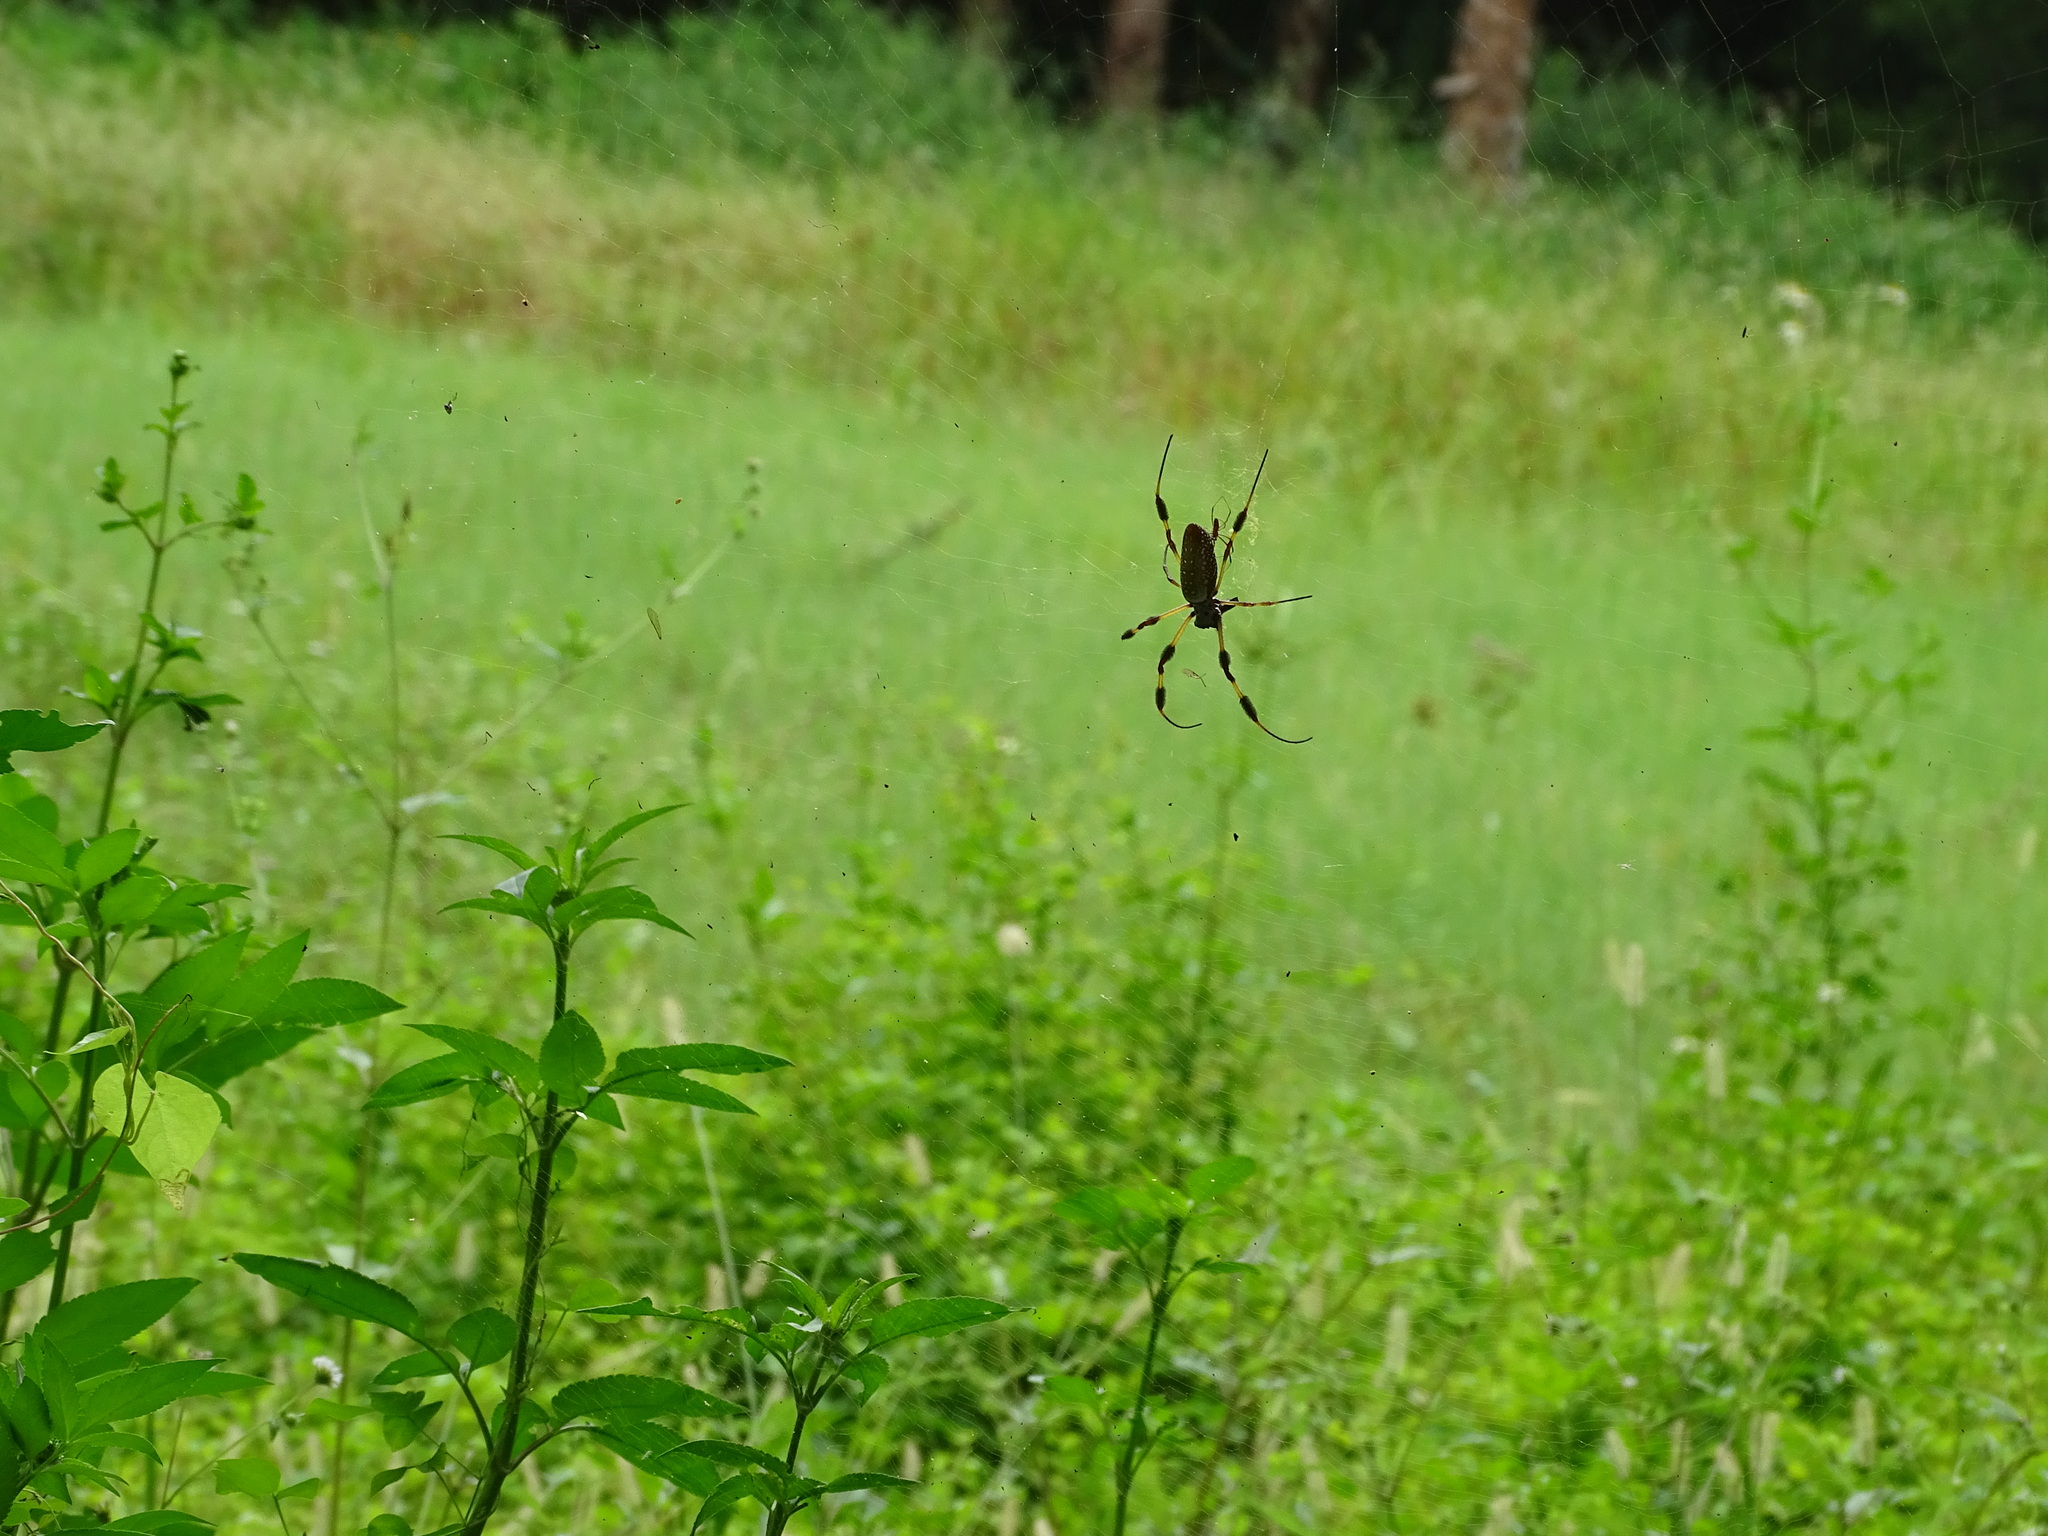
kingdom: Animalia
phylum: Arthropoda
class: Arachnida
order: Araneae
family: Araneidae
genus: Trichonephila
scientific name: Trichonephila clavipes
